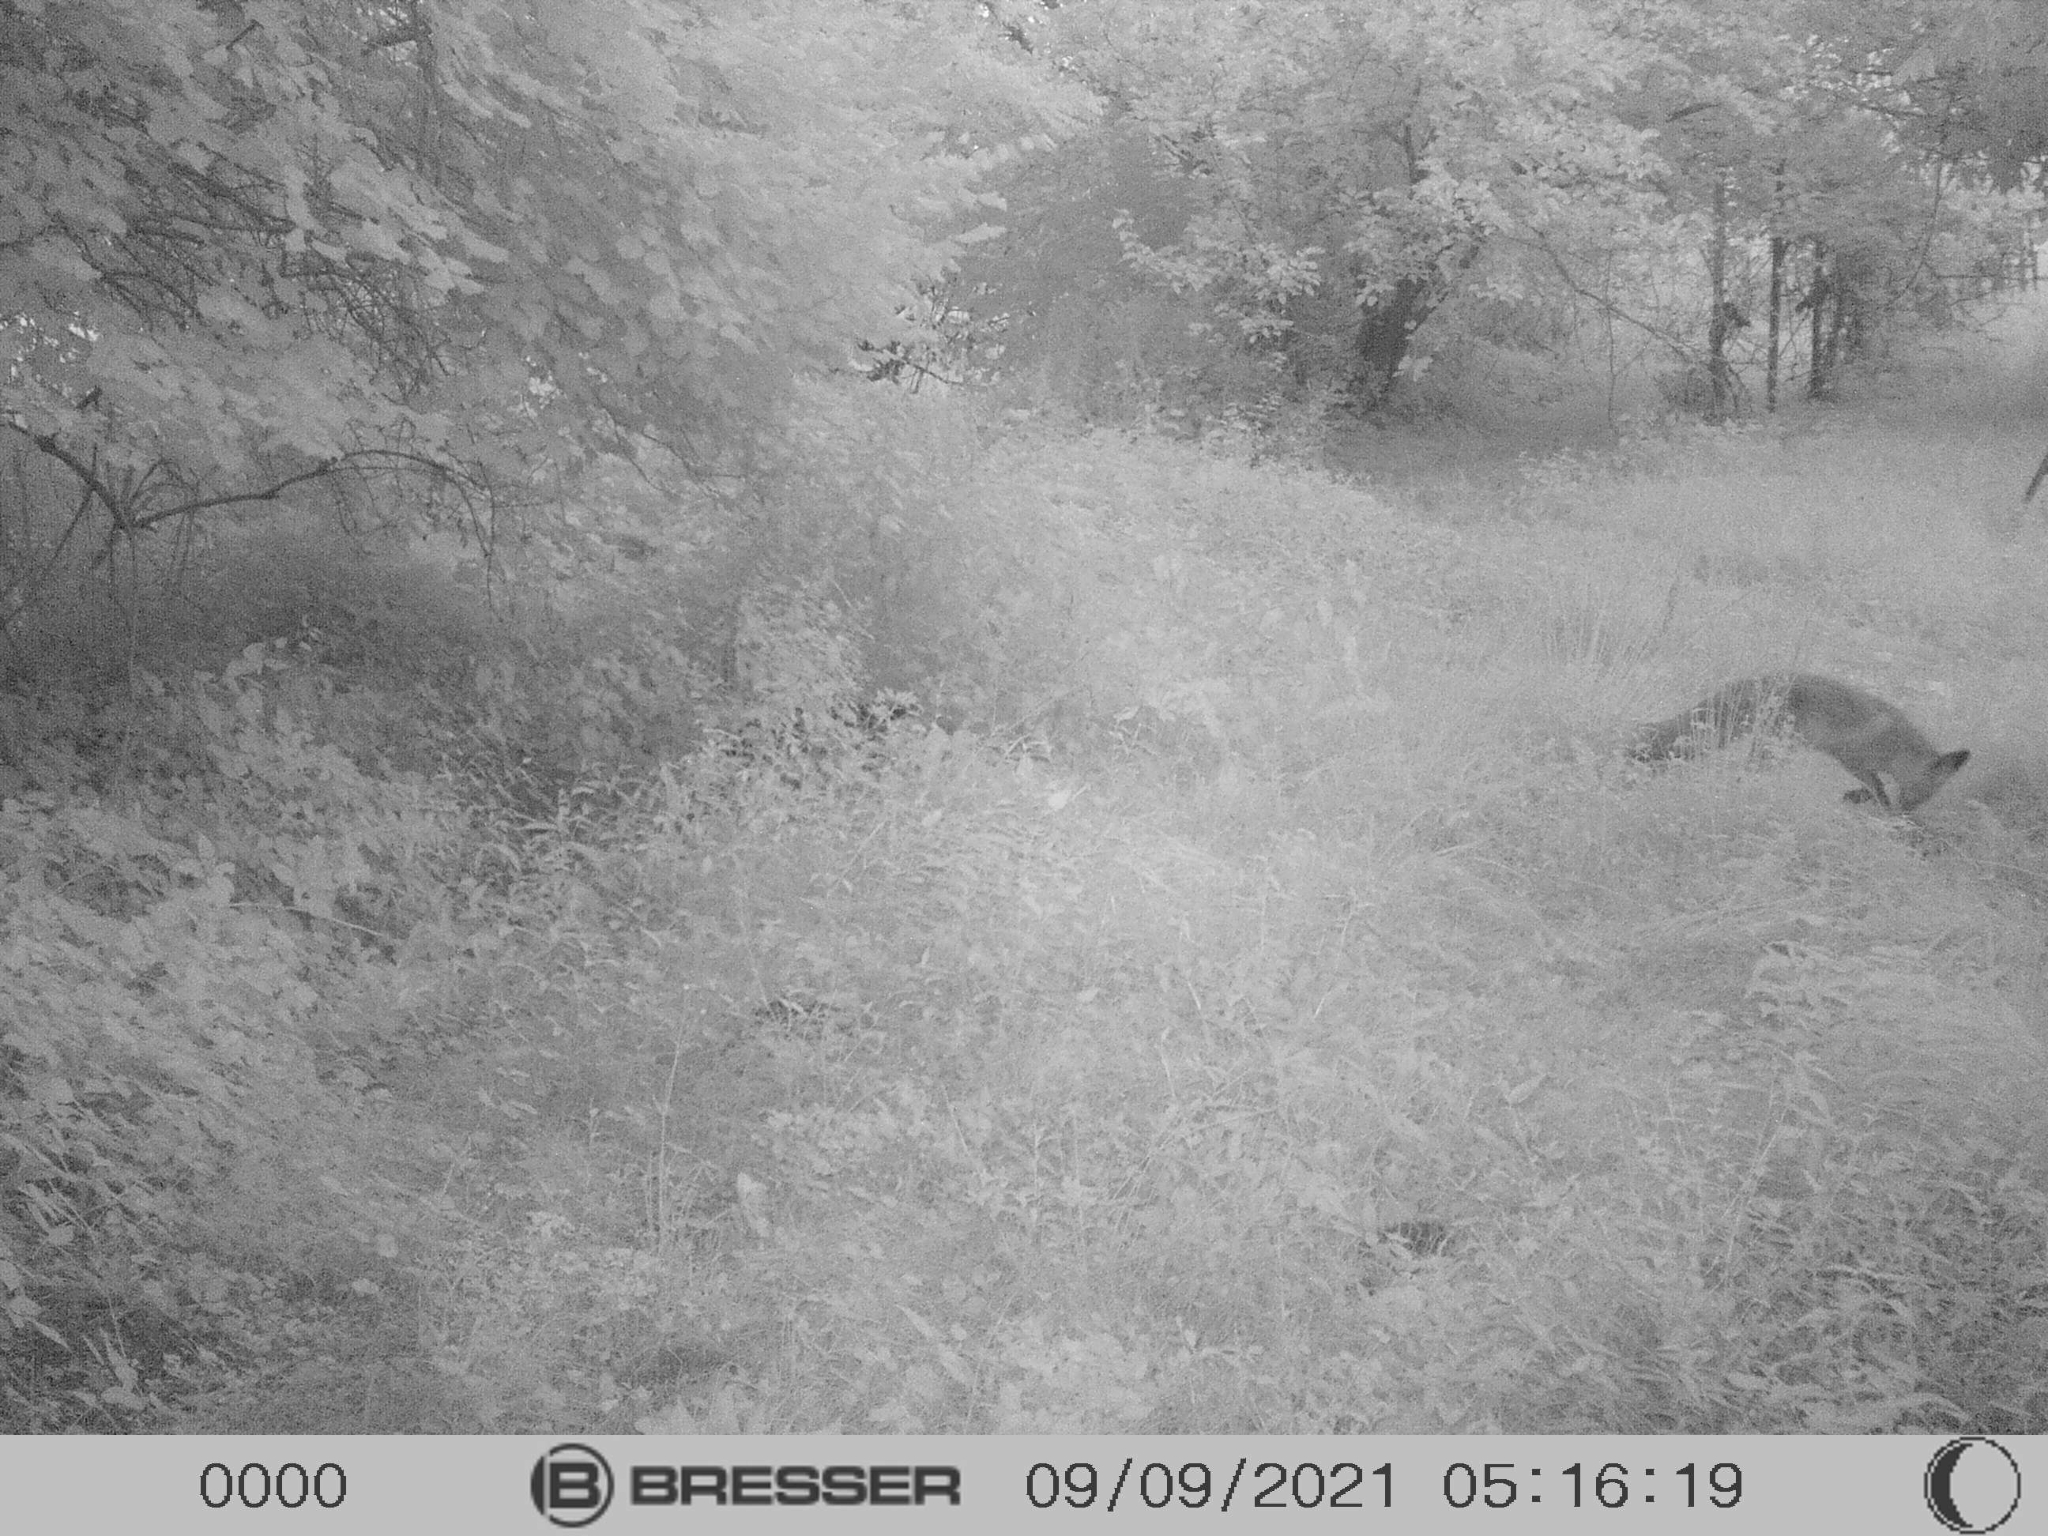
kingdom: Animalia
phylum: Chordata
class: Mammalia
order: Carnivora
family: Canidae
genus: Vulpes
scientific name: Vulpes vulpes
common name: Red fox
